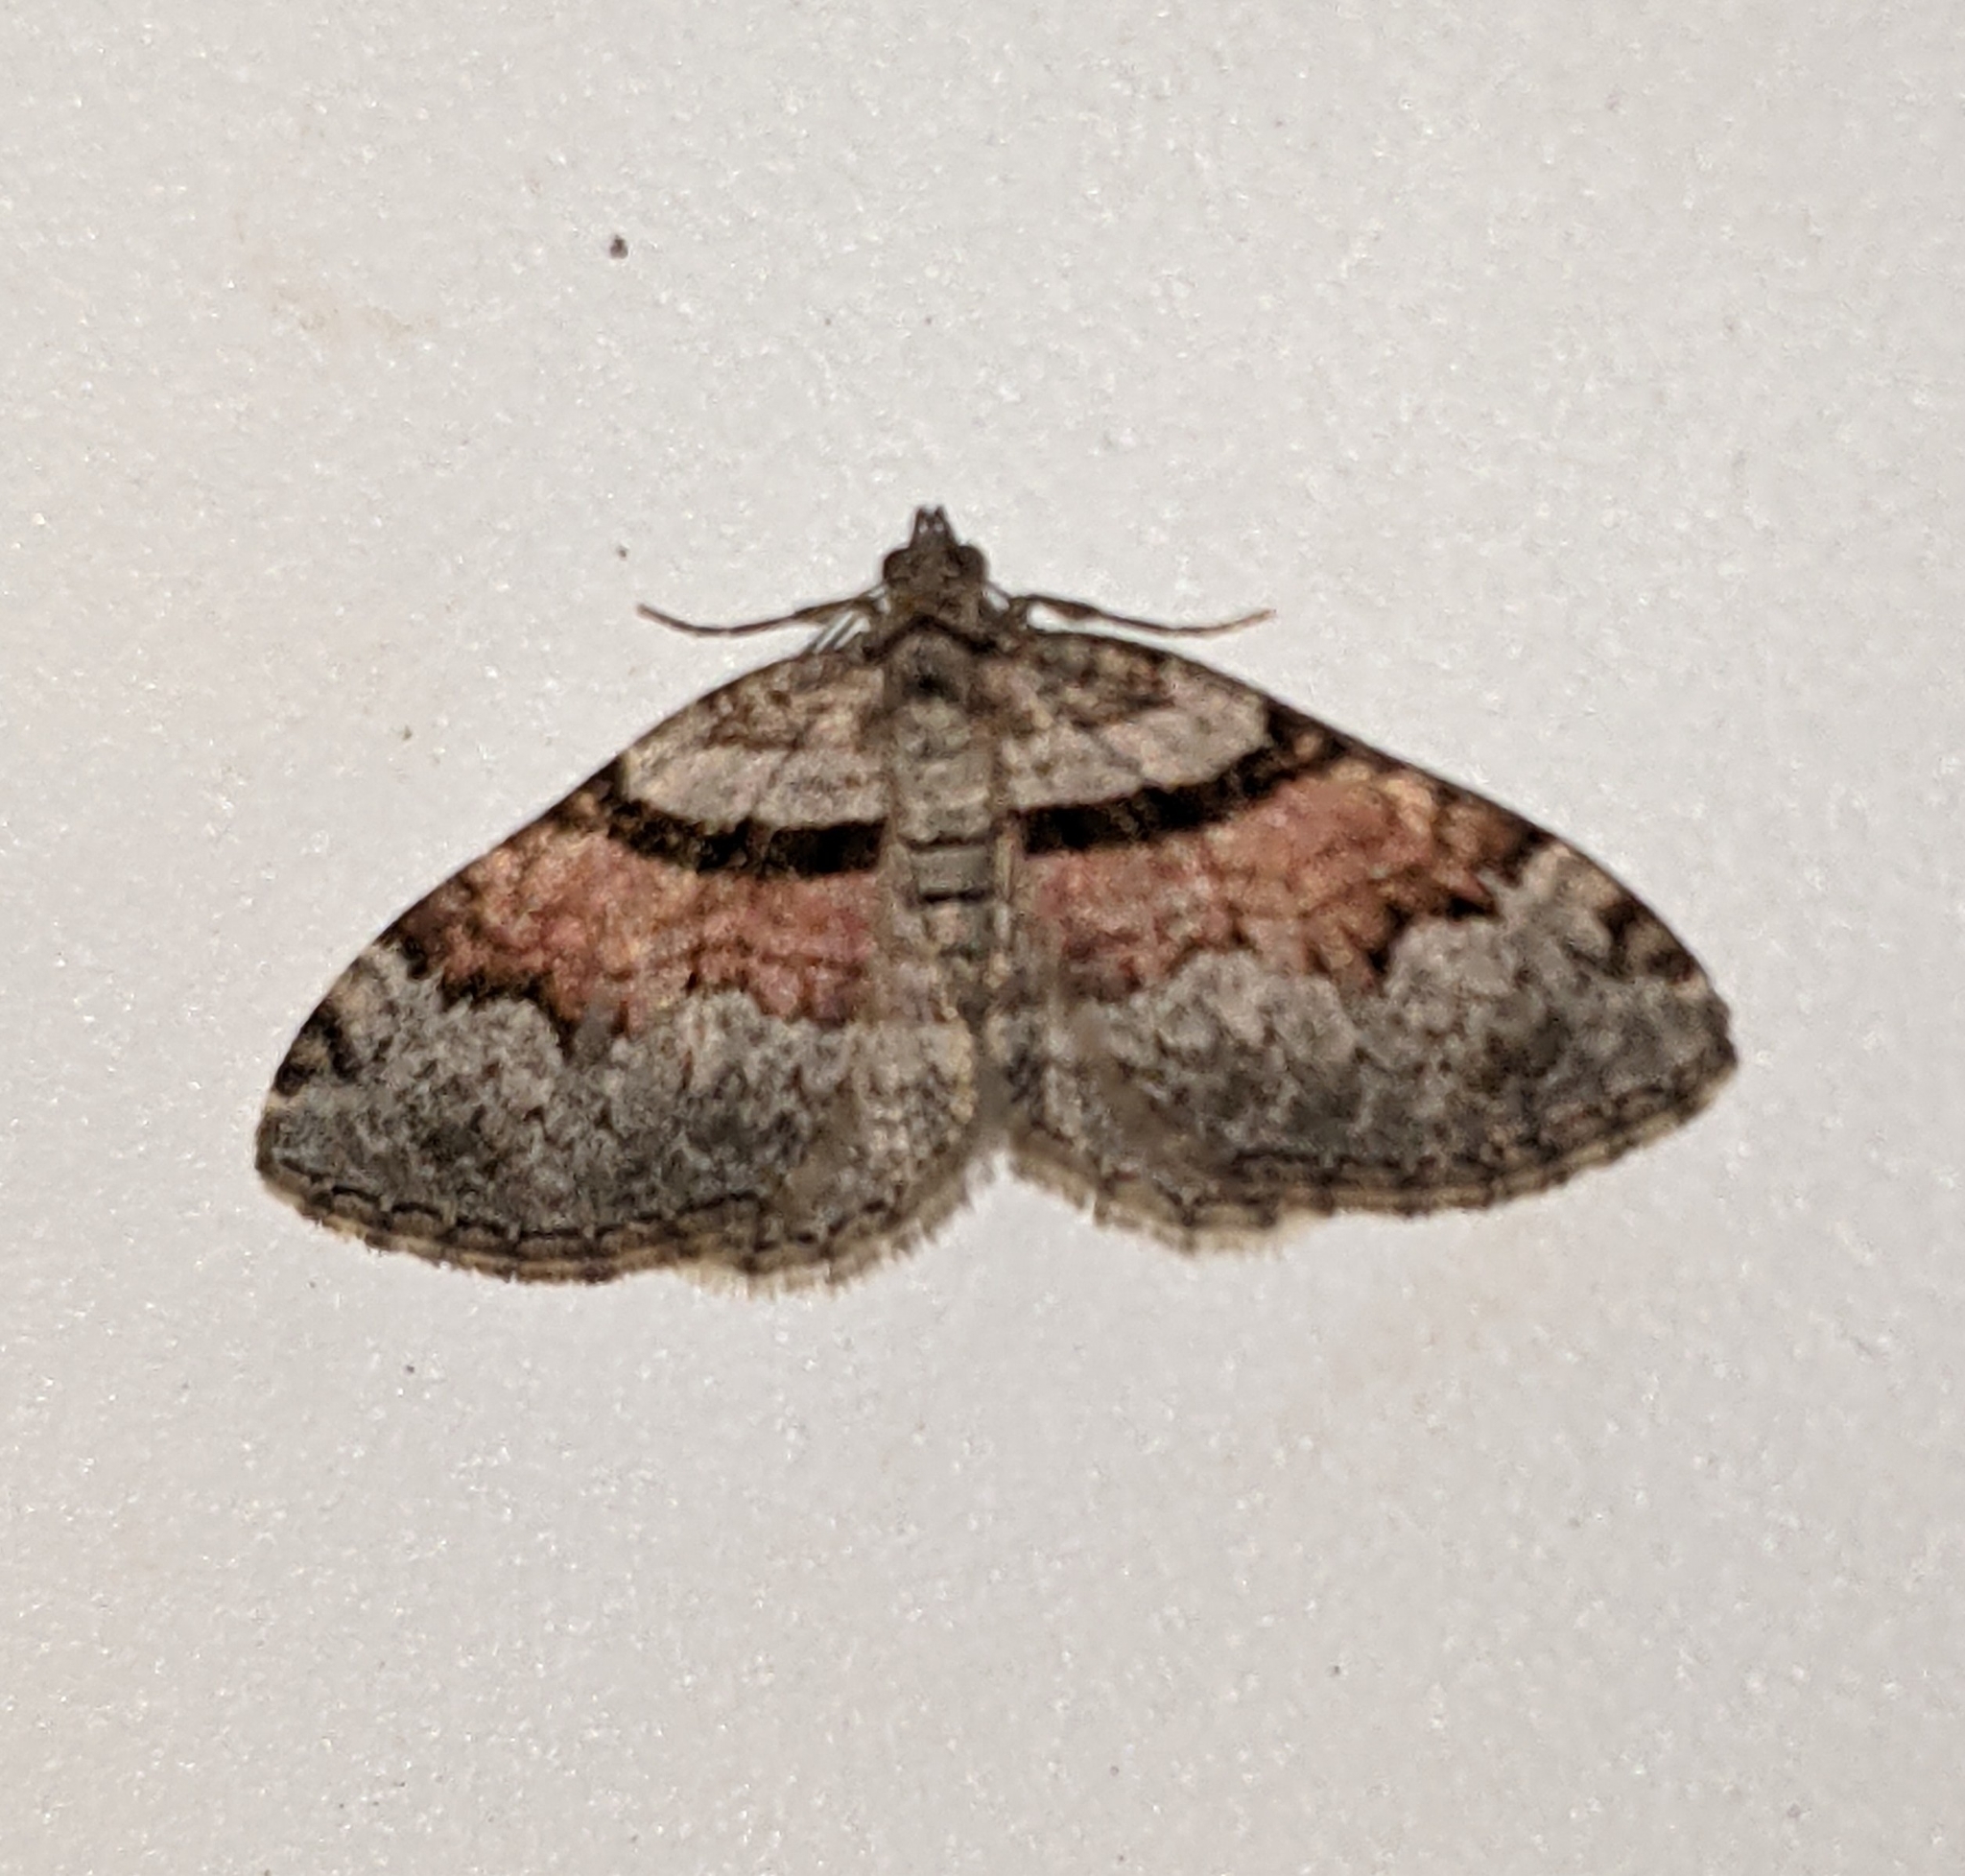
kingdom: Animalia
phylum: Arthropoda
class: Insecta
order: Lepidoptera
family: Geometridae
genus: Xanthorhoe
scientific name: Xanthorhoe packardata
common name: Packard's carpet
